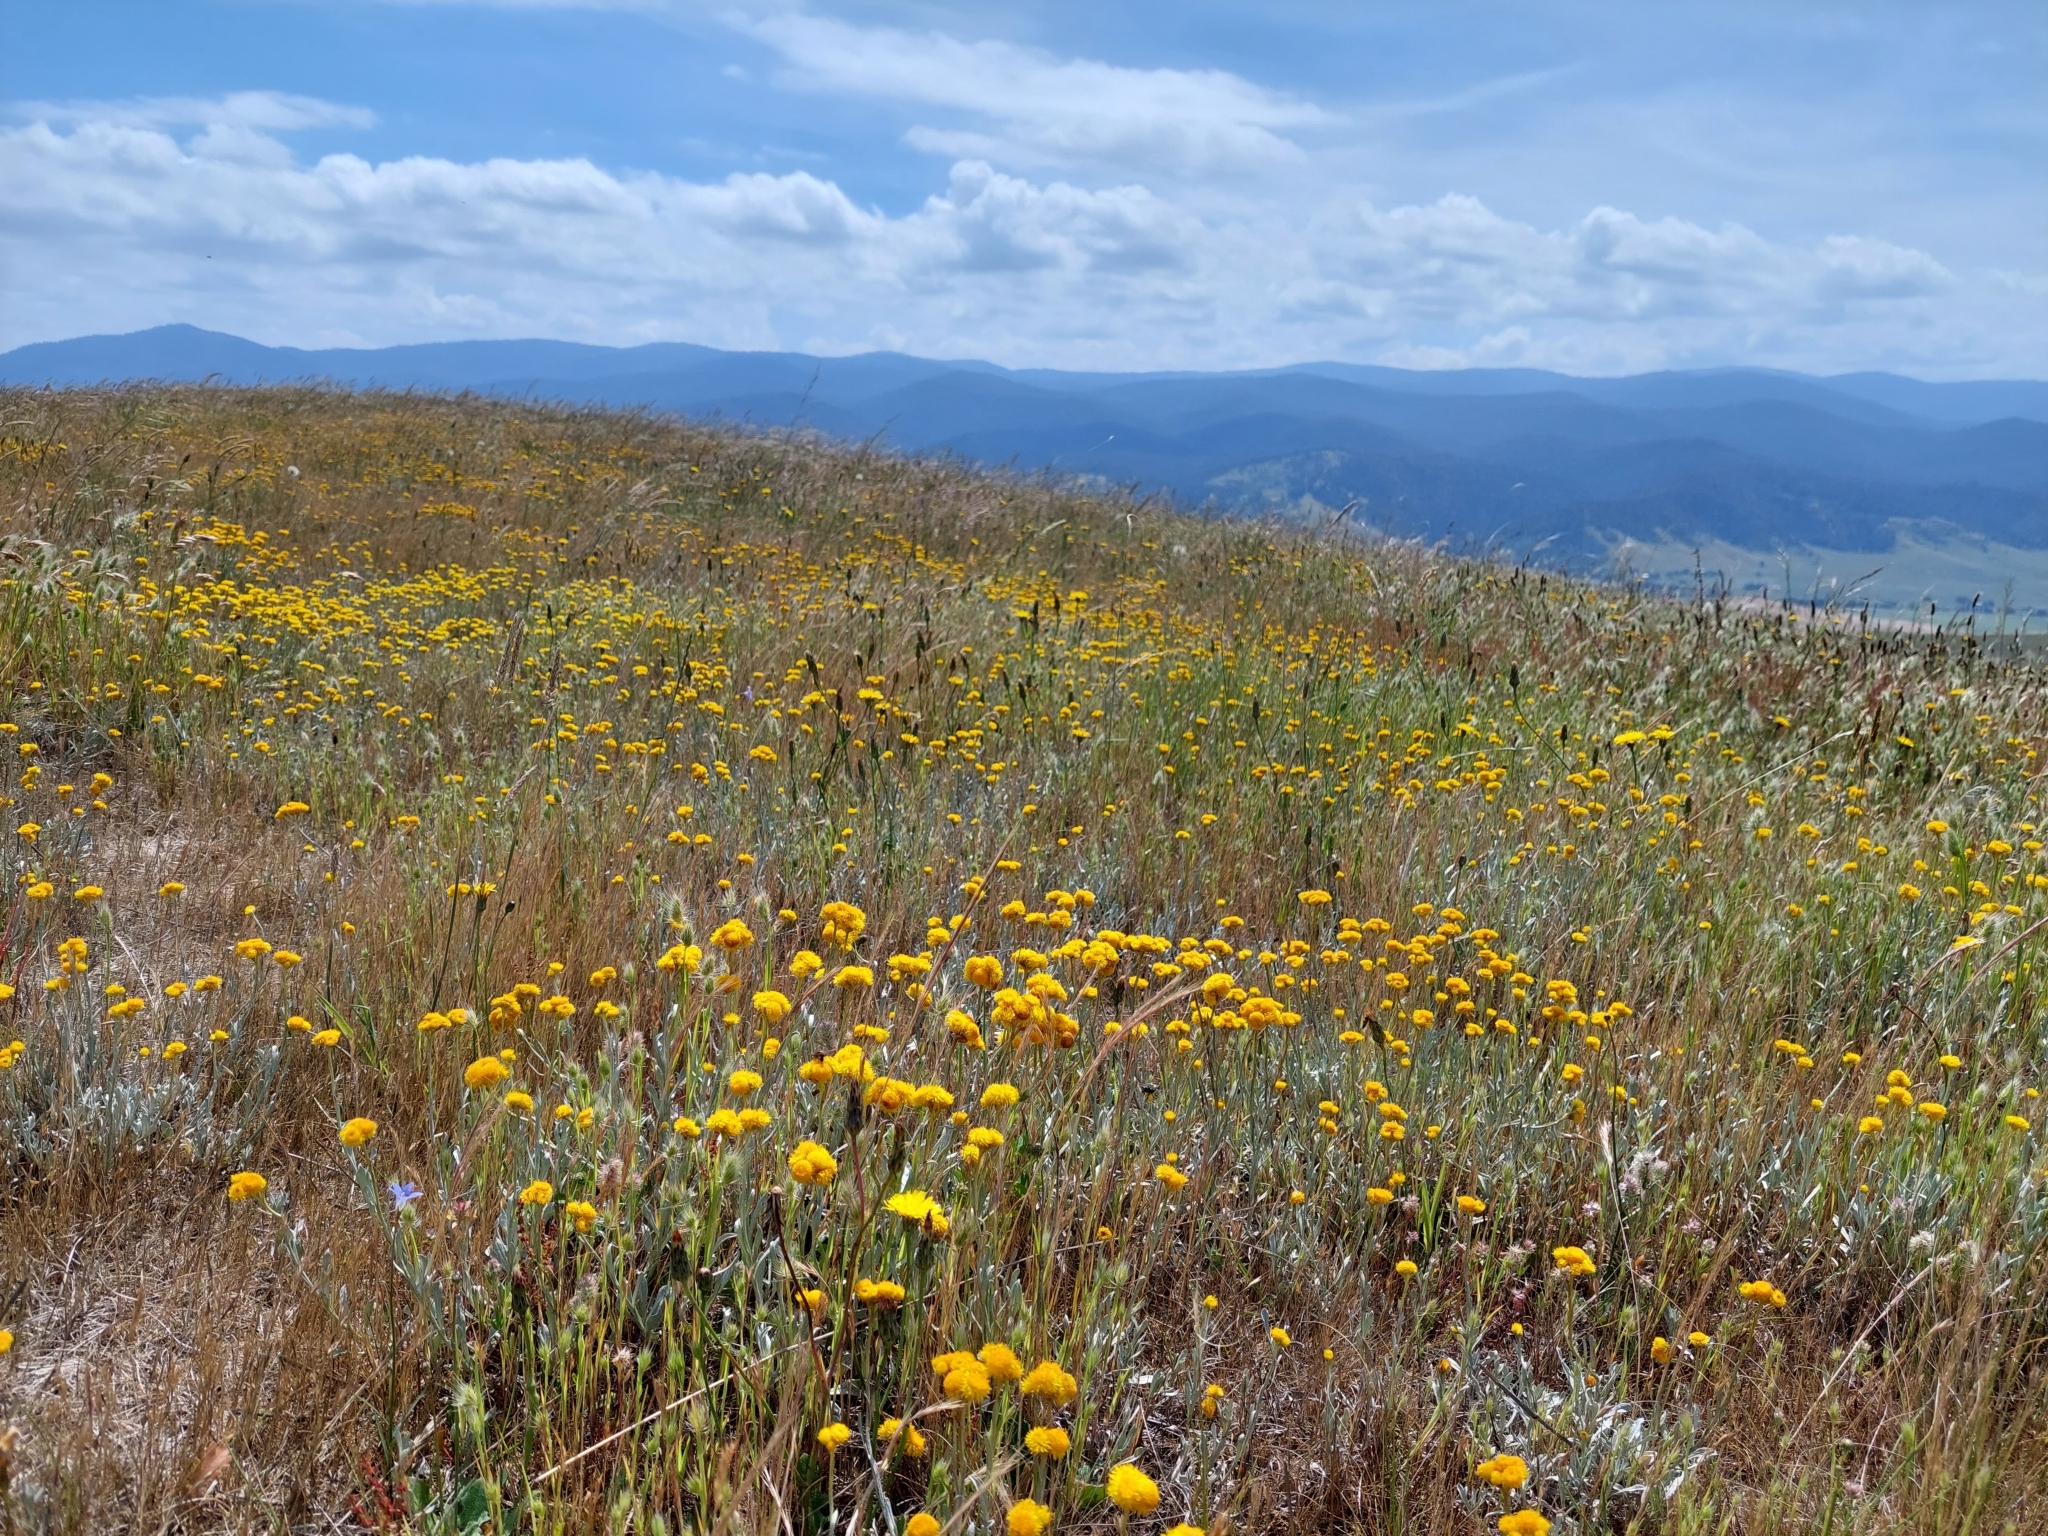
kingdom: Plantae
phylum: Tracheophyta
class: Magnoliopsida
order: Asterales
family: Asteraceae
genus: Chrysocephalum
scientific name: Chrysocephalum apiculatum
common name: Common everlasting
